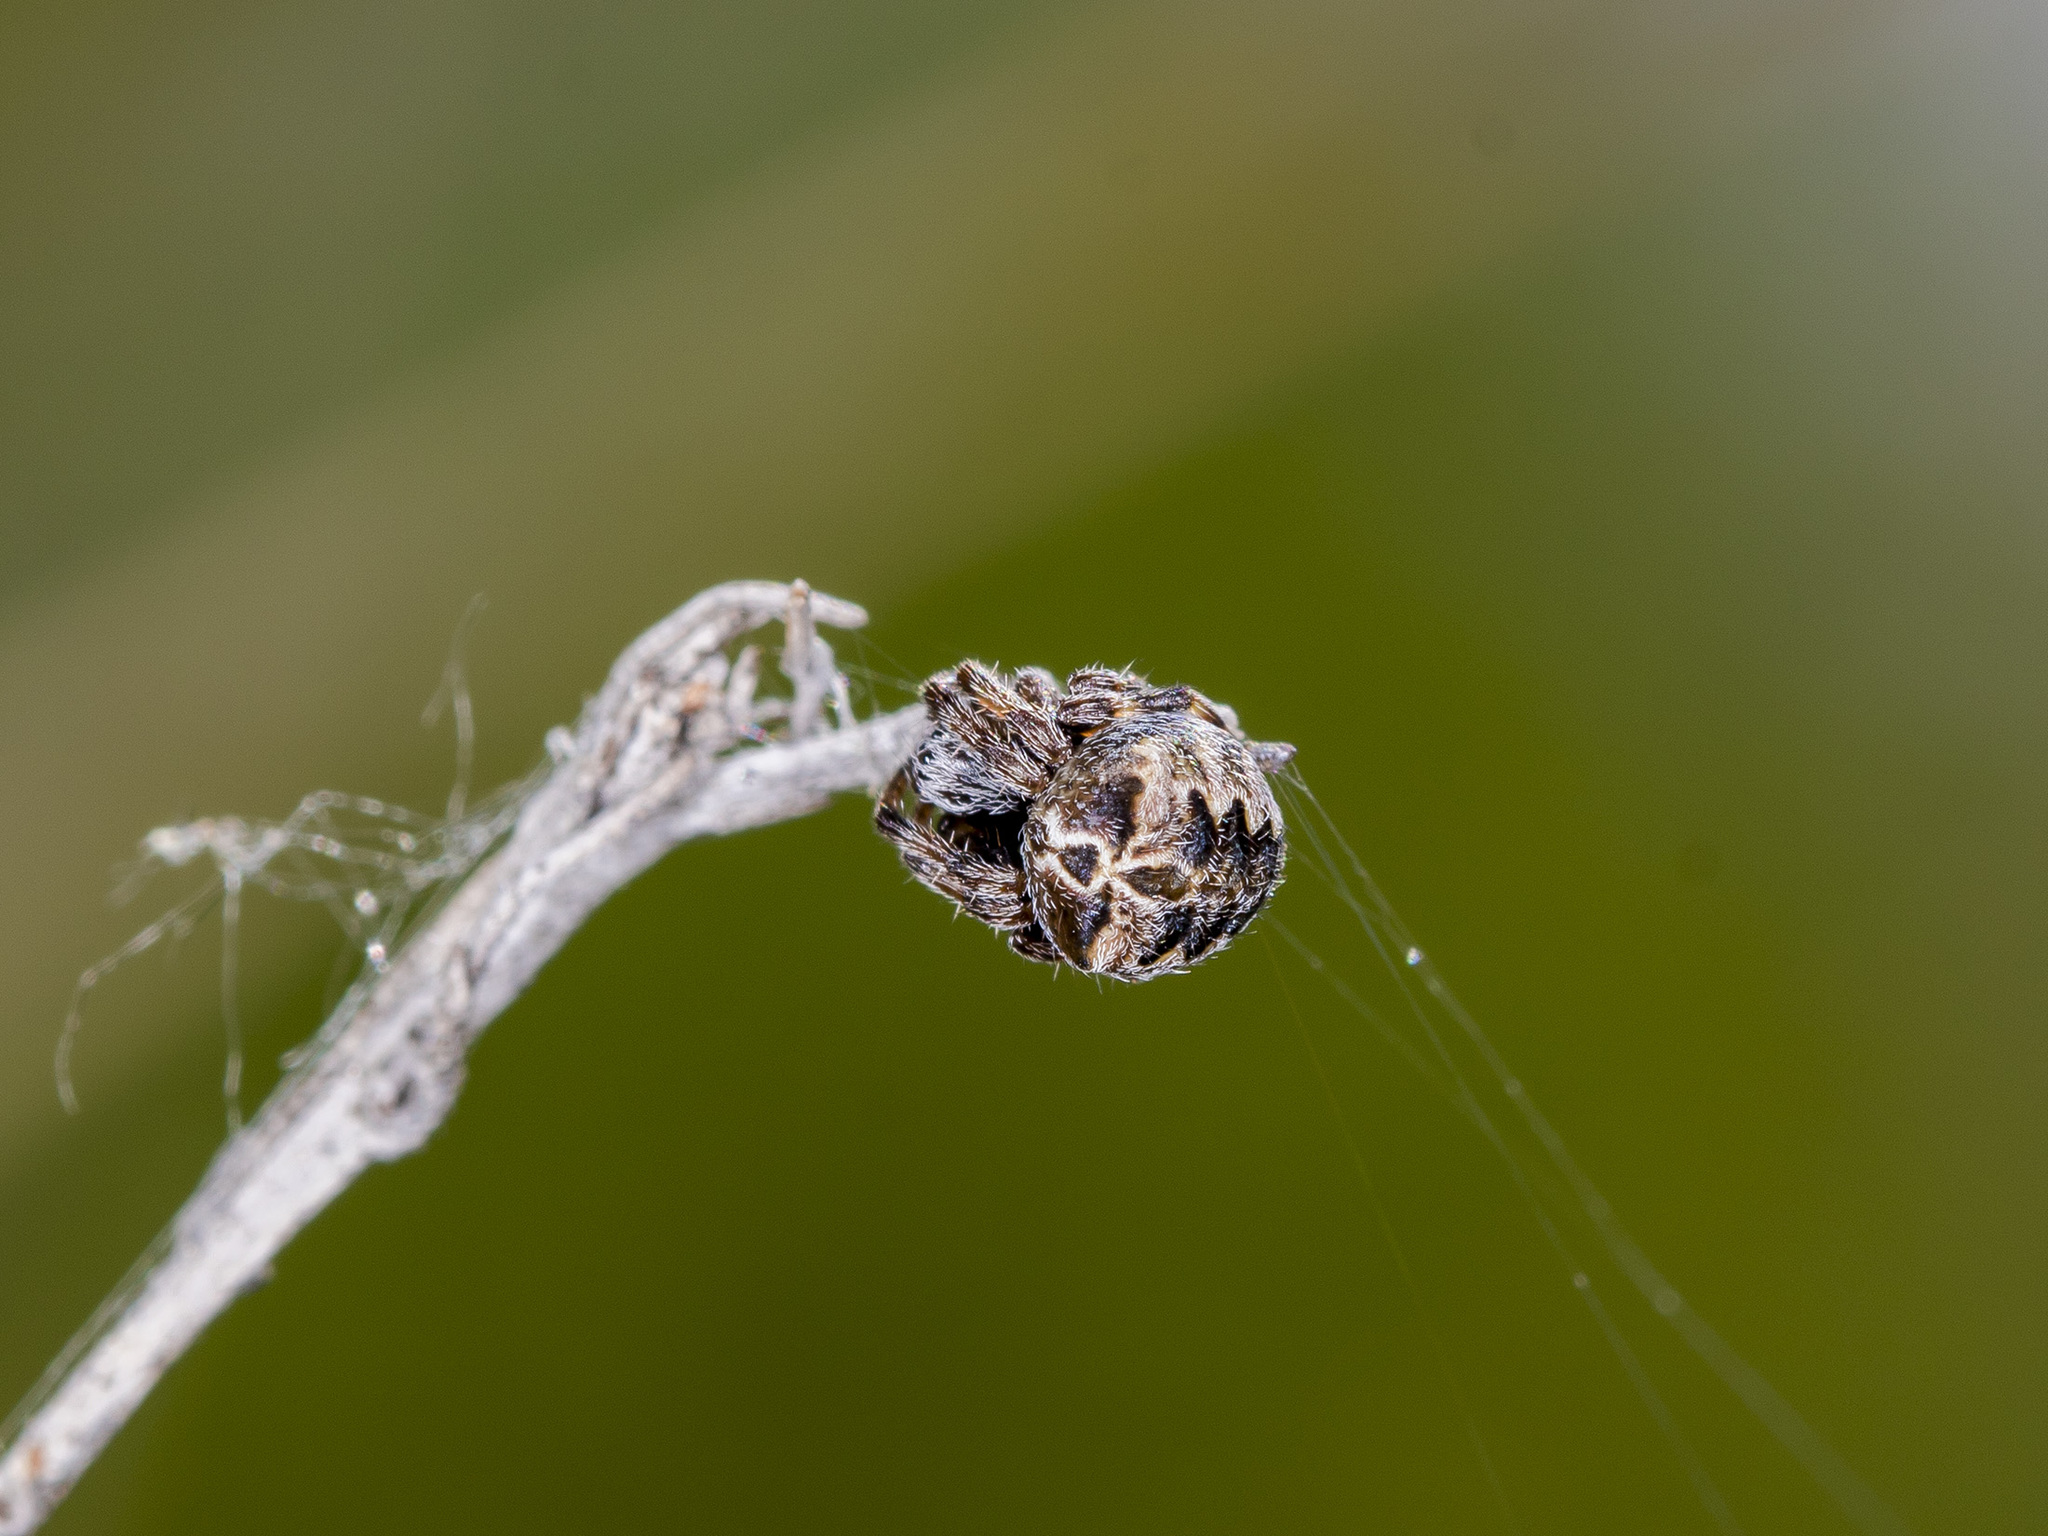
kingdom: Animalia
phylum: Arthropoda
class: Arachnida
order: Araneae
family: Araneidae
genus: Araneus
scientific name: Araneus grossus
